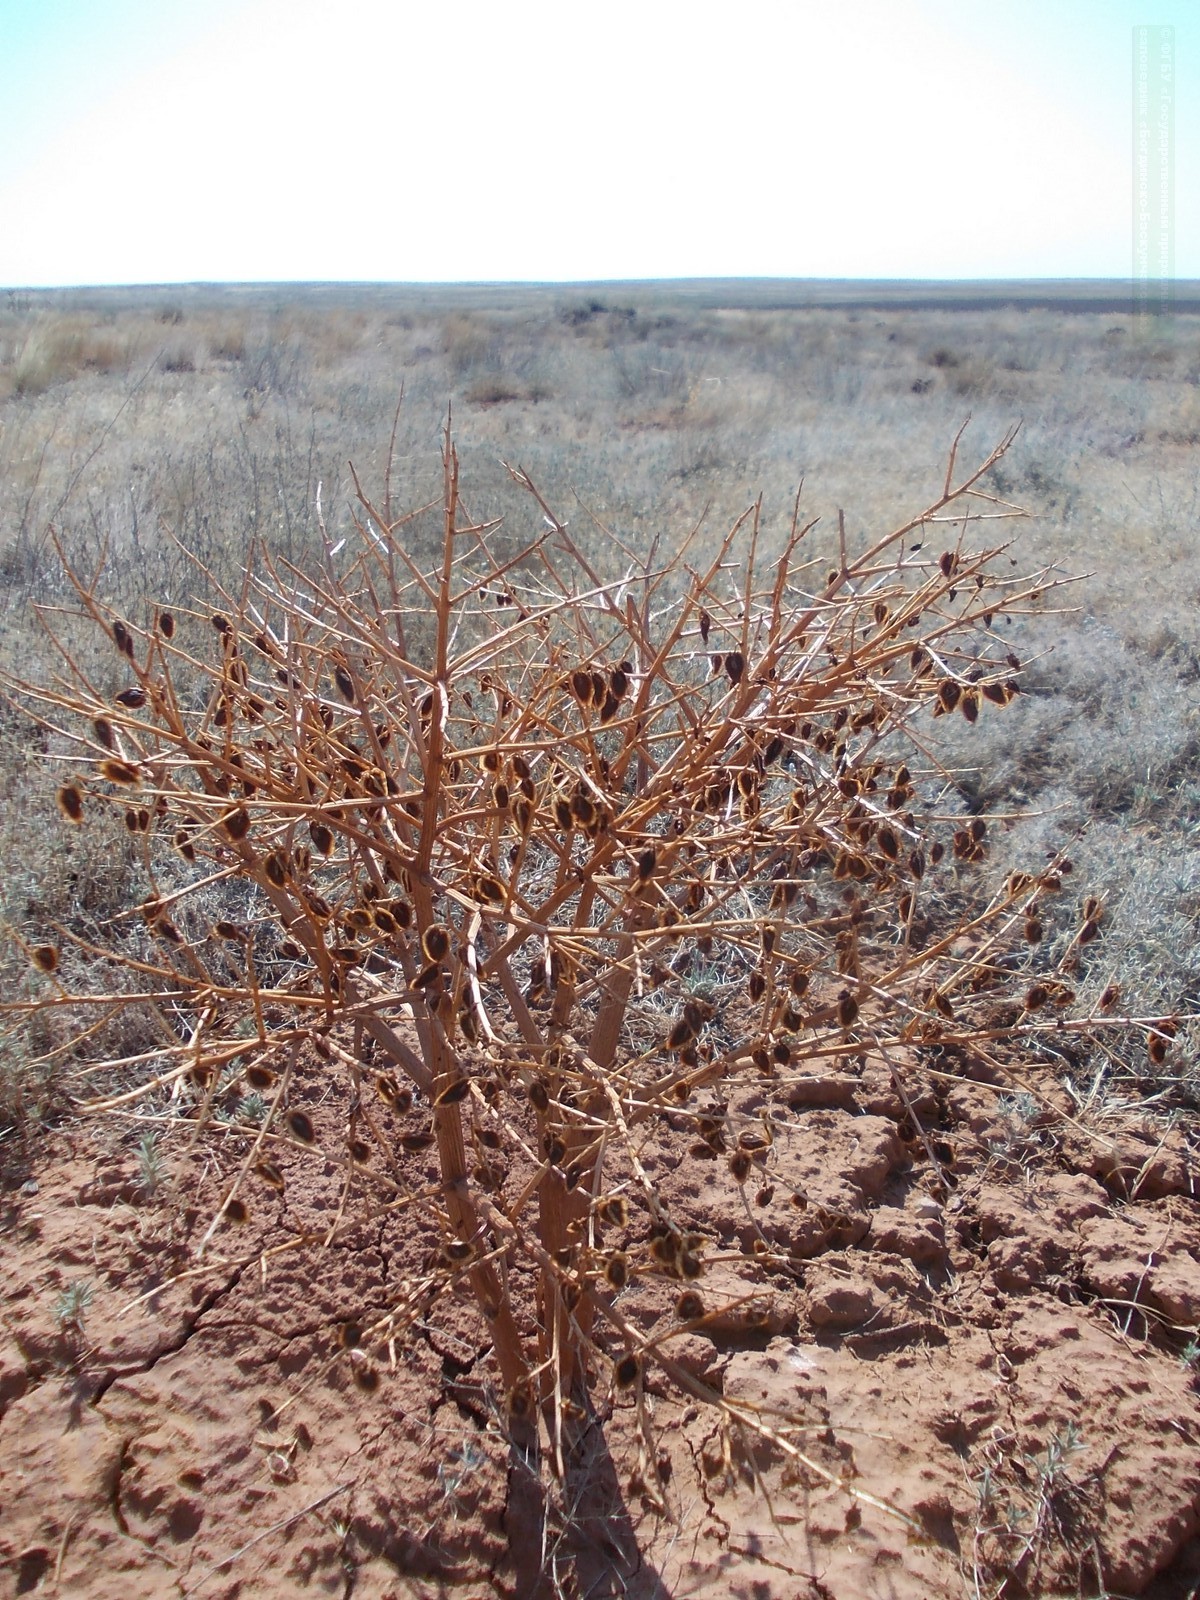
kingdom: Plantae
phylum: Tracheophyta
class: Magnoliopsida
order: Caryophyllales
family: Polygonaceae
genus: Rheum
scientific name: Rheum tataricum
